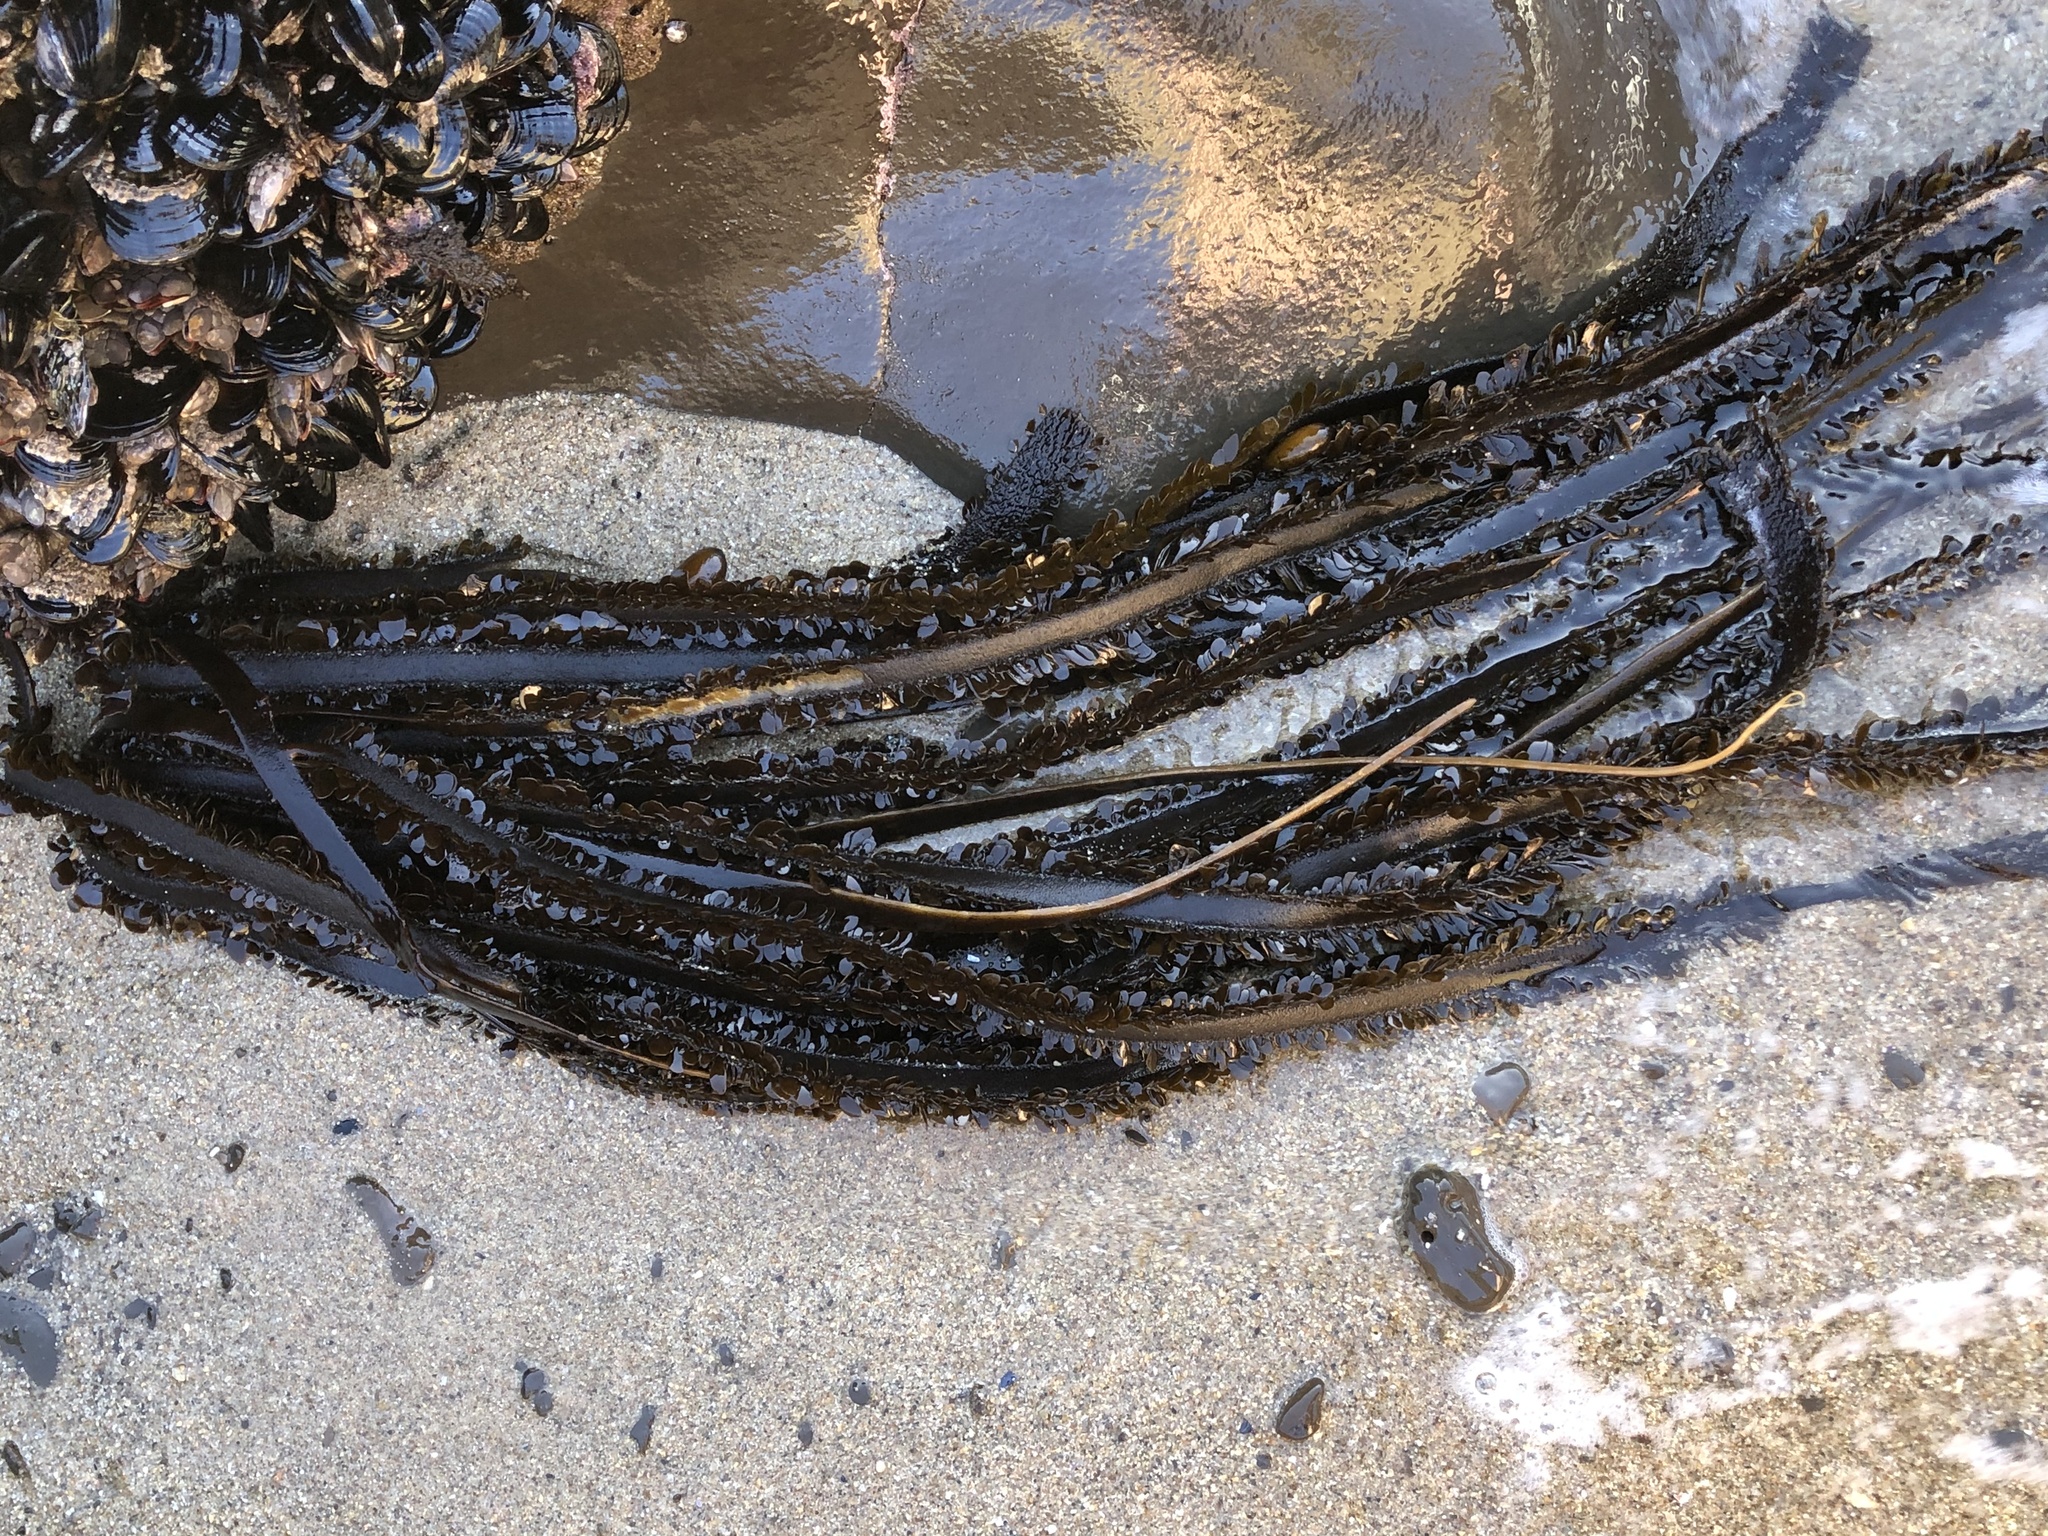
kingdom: Chromista
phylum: Ochrophyta
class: Phaeophyceae
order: Laminariales
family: Lessoniaceae
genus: Egregia
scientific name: Egregia menziesii
